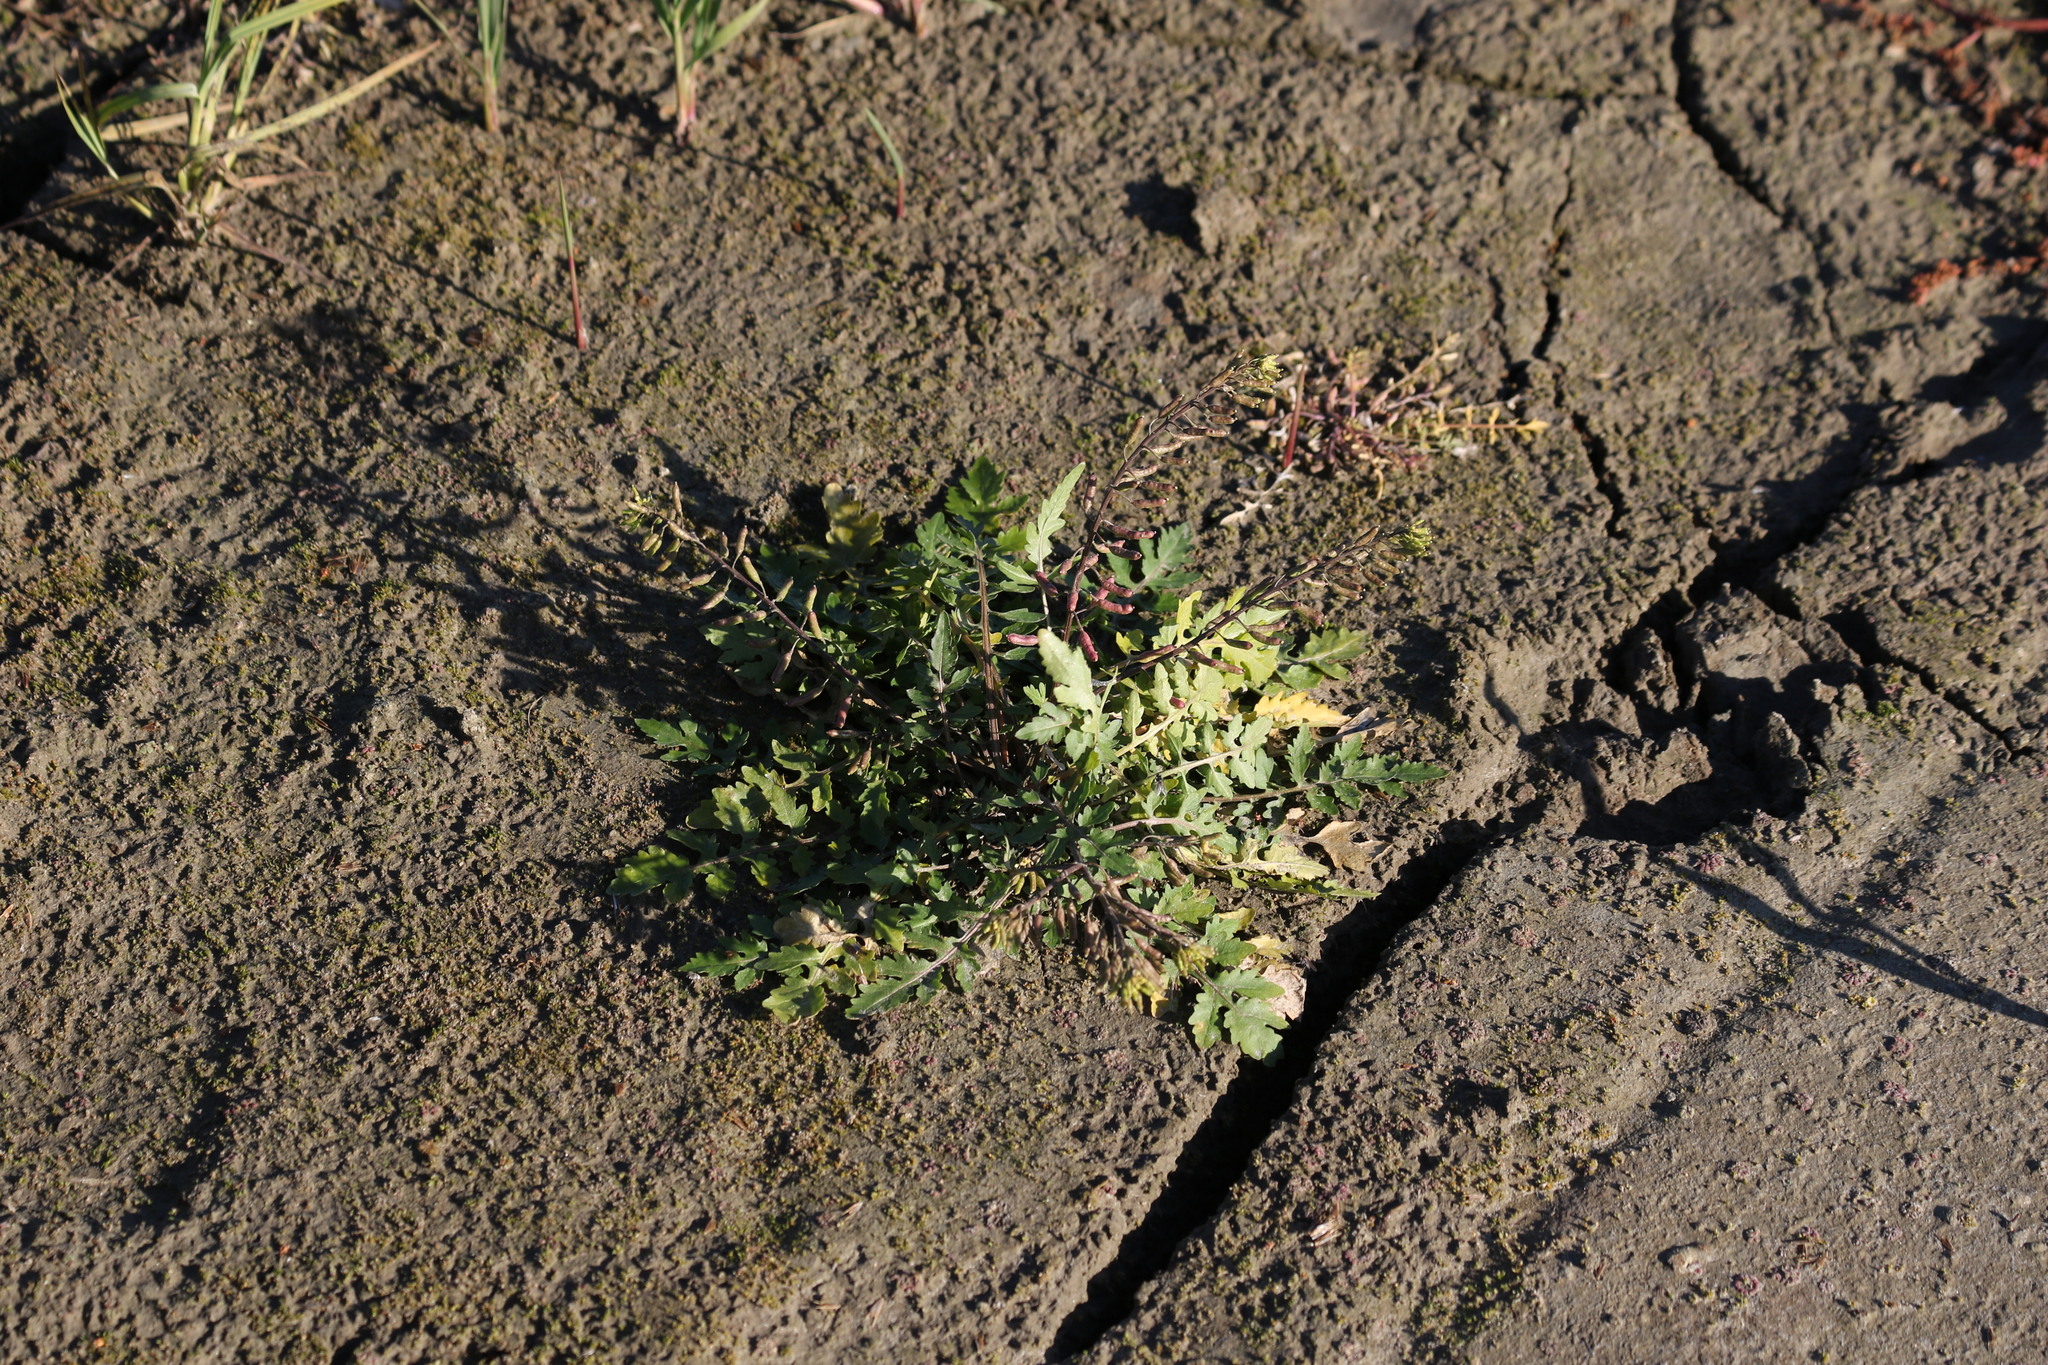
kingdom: Plantae
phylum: Tracheophyta
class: Magnoliopsida
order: Brassicales
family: Brassicaceae
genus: Rorippa
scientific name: Rorippa palustris
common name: Marsh yellow-cress
